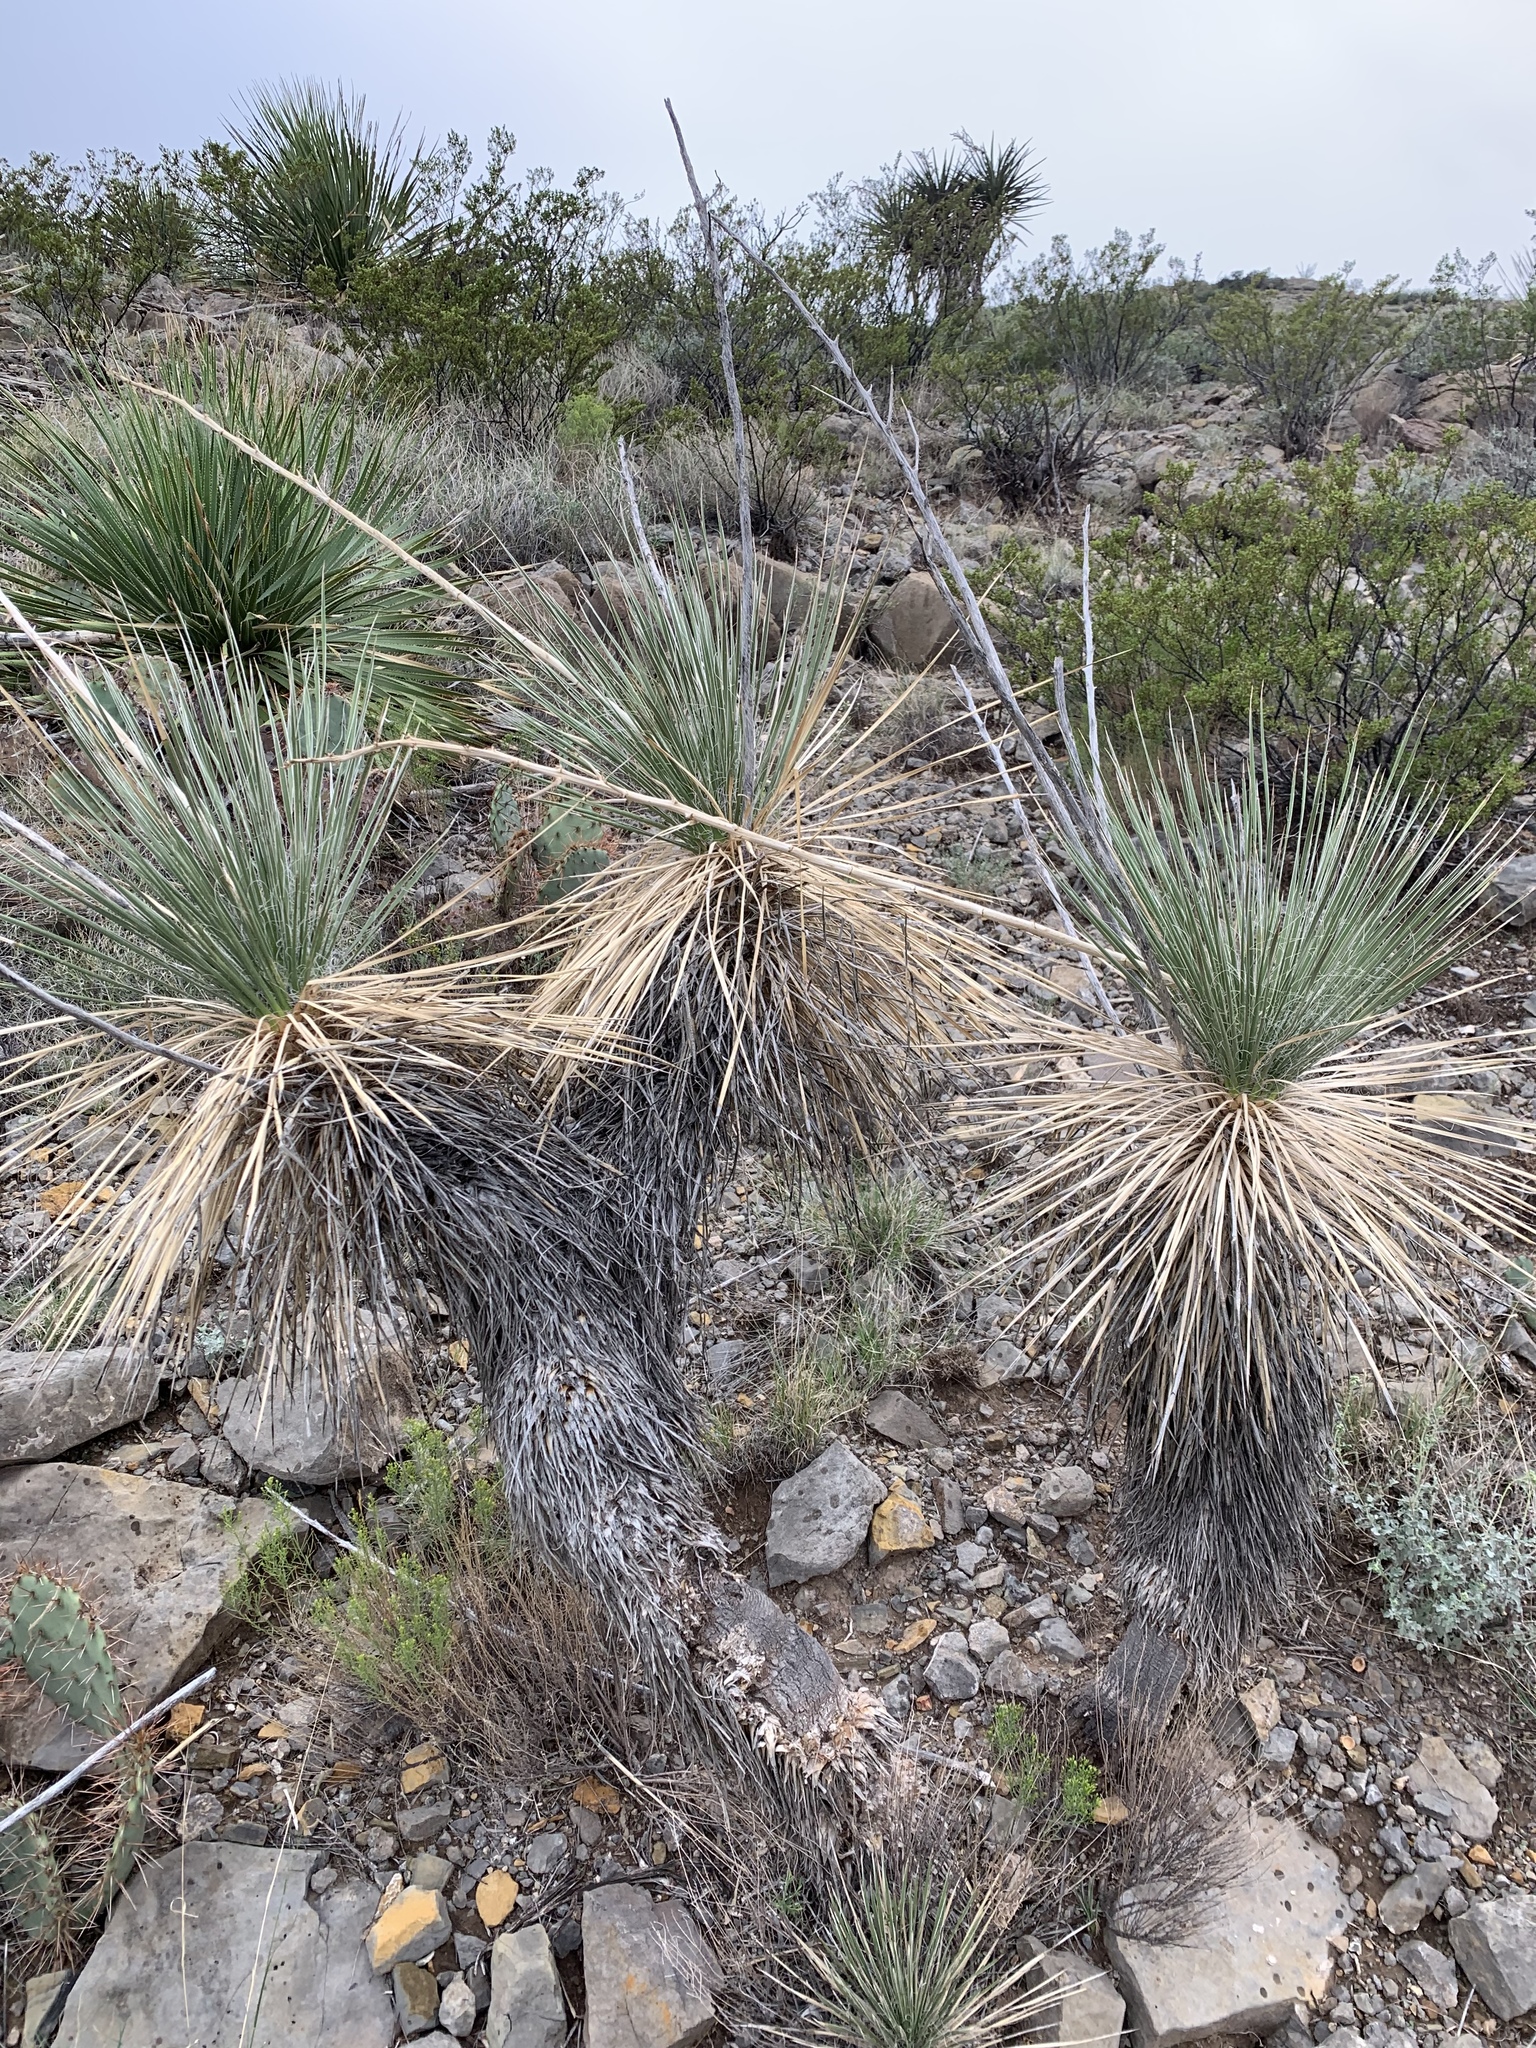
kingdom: Plantae
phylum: Tracheophyta
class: Liliopsida
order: Asparagales
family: Asparagaceae
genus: Yucca
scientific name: Yucca elata
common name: Palmella
